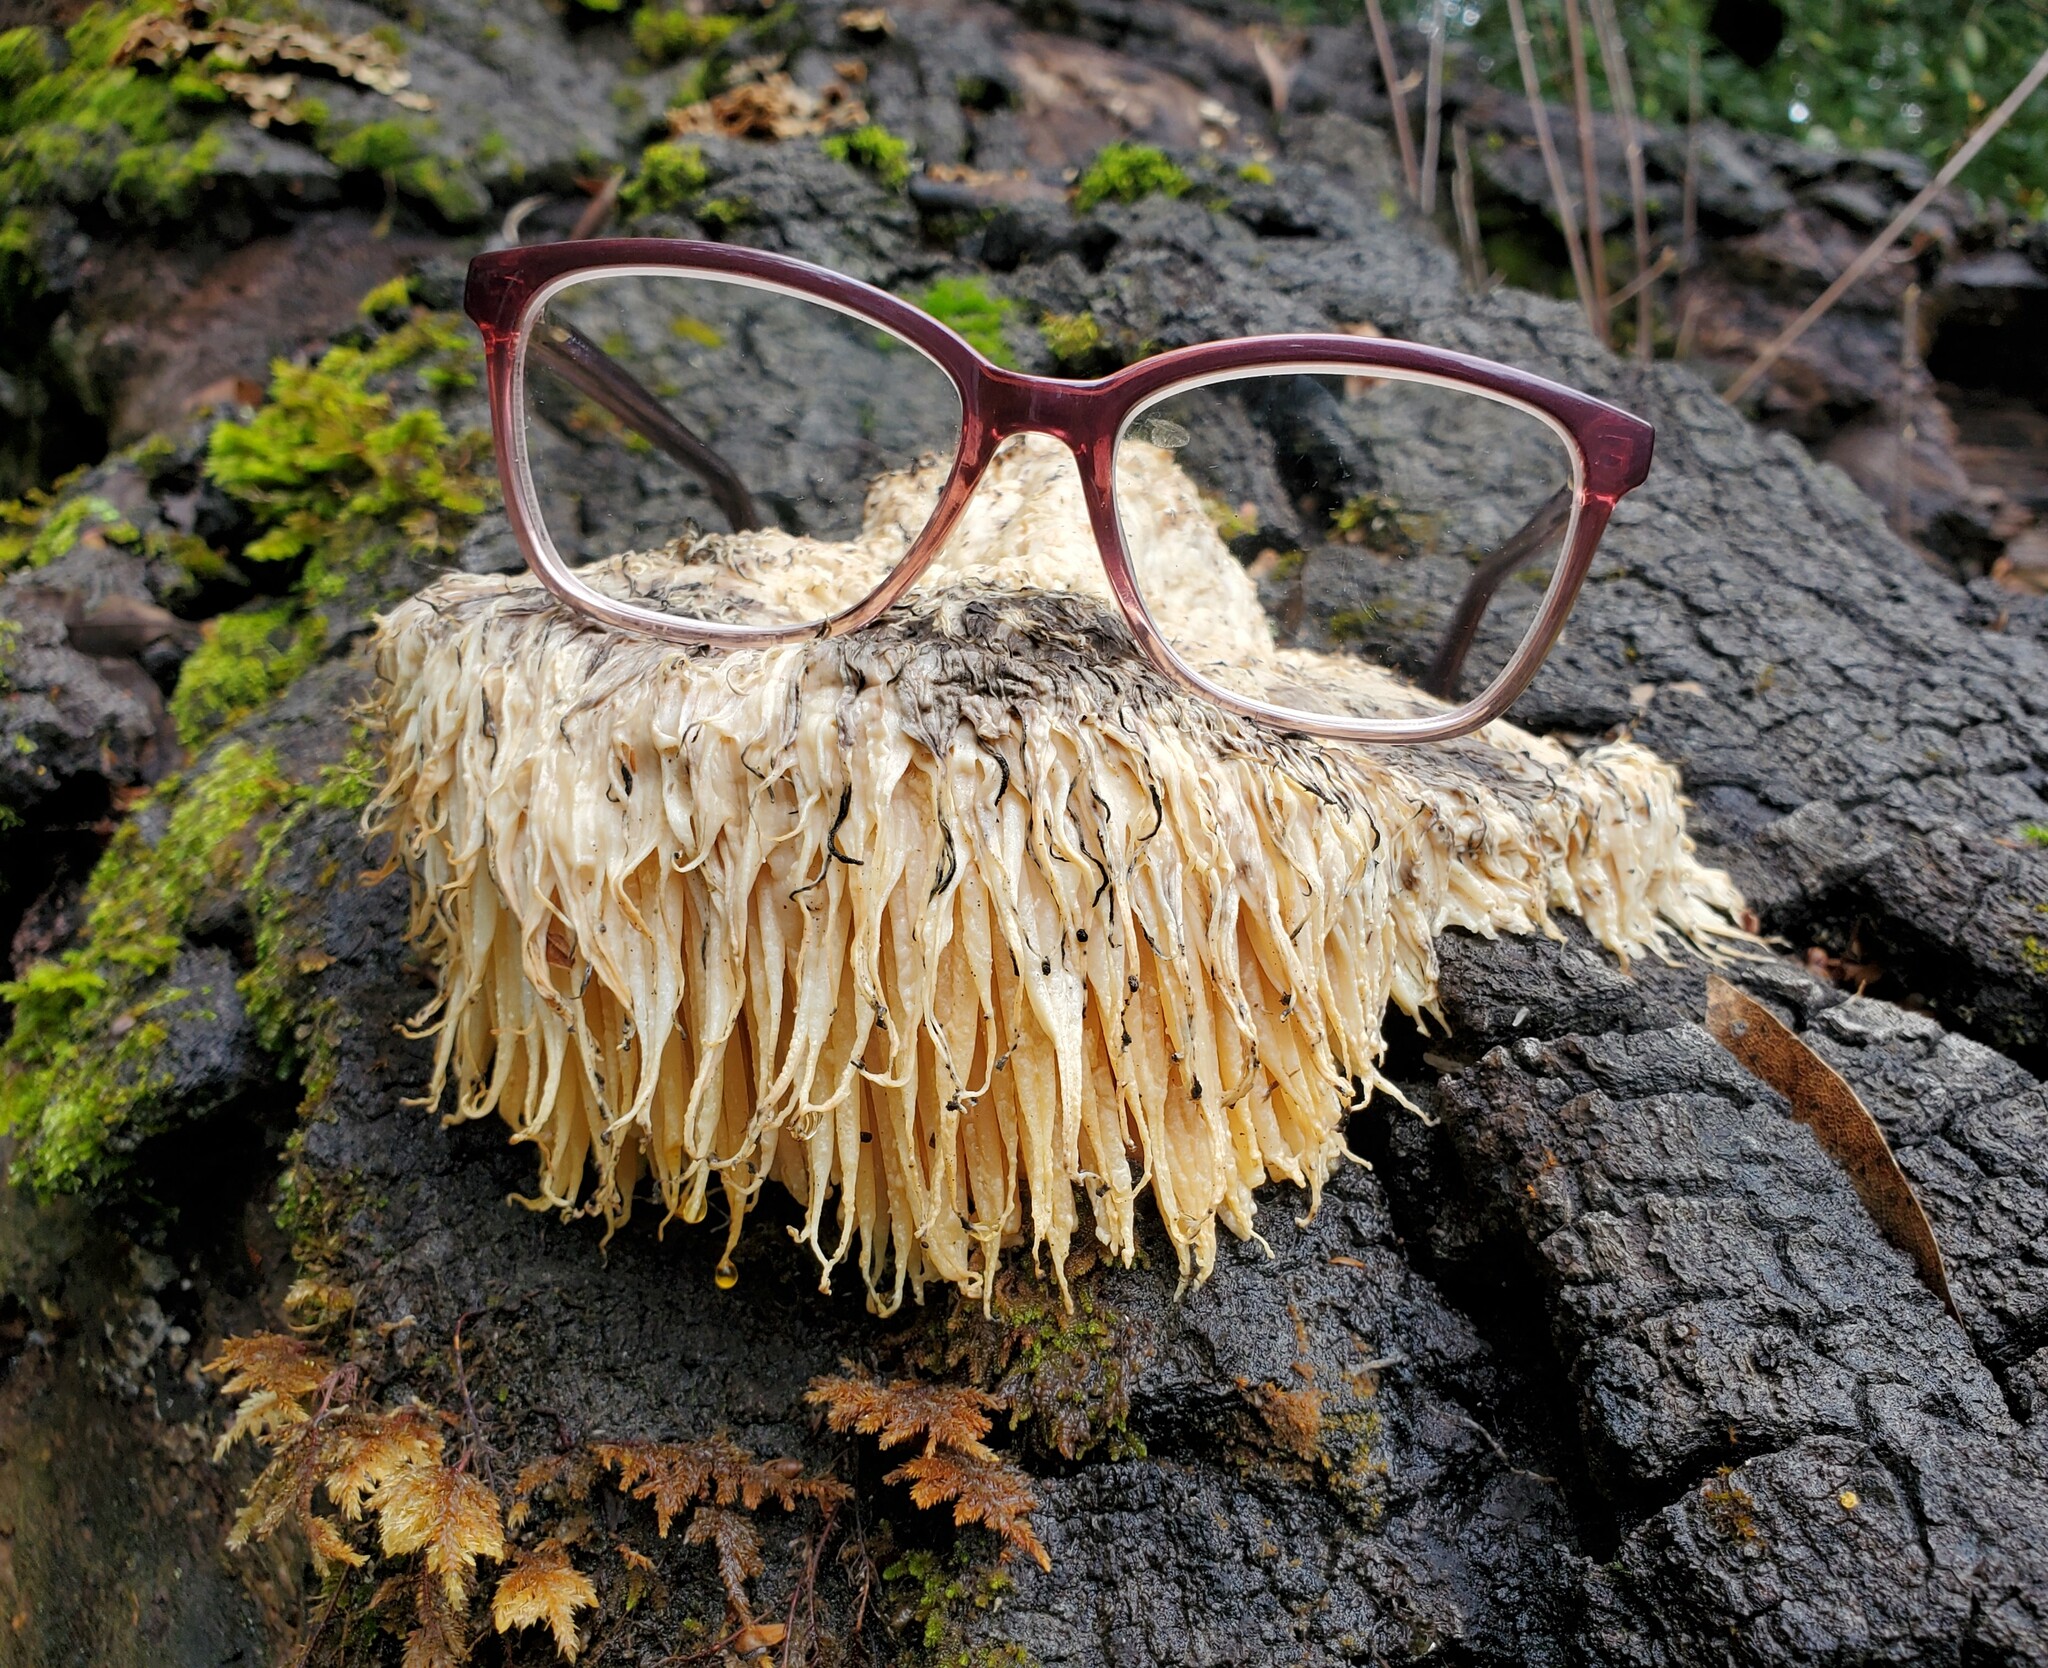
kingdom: Fungi
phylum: Basidiomycota
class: Agaricomycetes
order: Russulales
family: Hericiaceae
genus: Hericium
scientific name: Hericium erinaceus
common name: Bearded tooth
